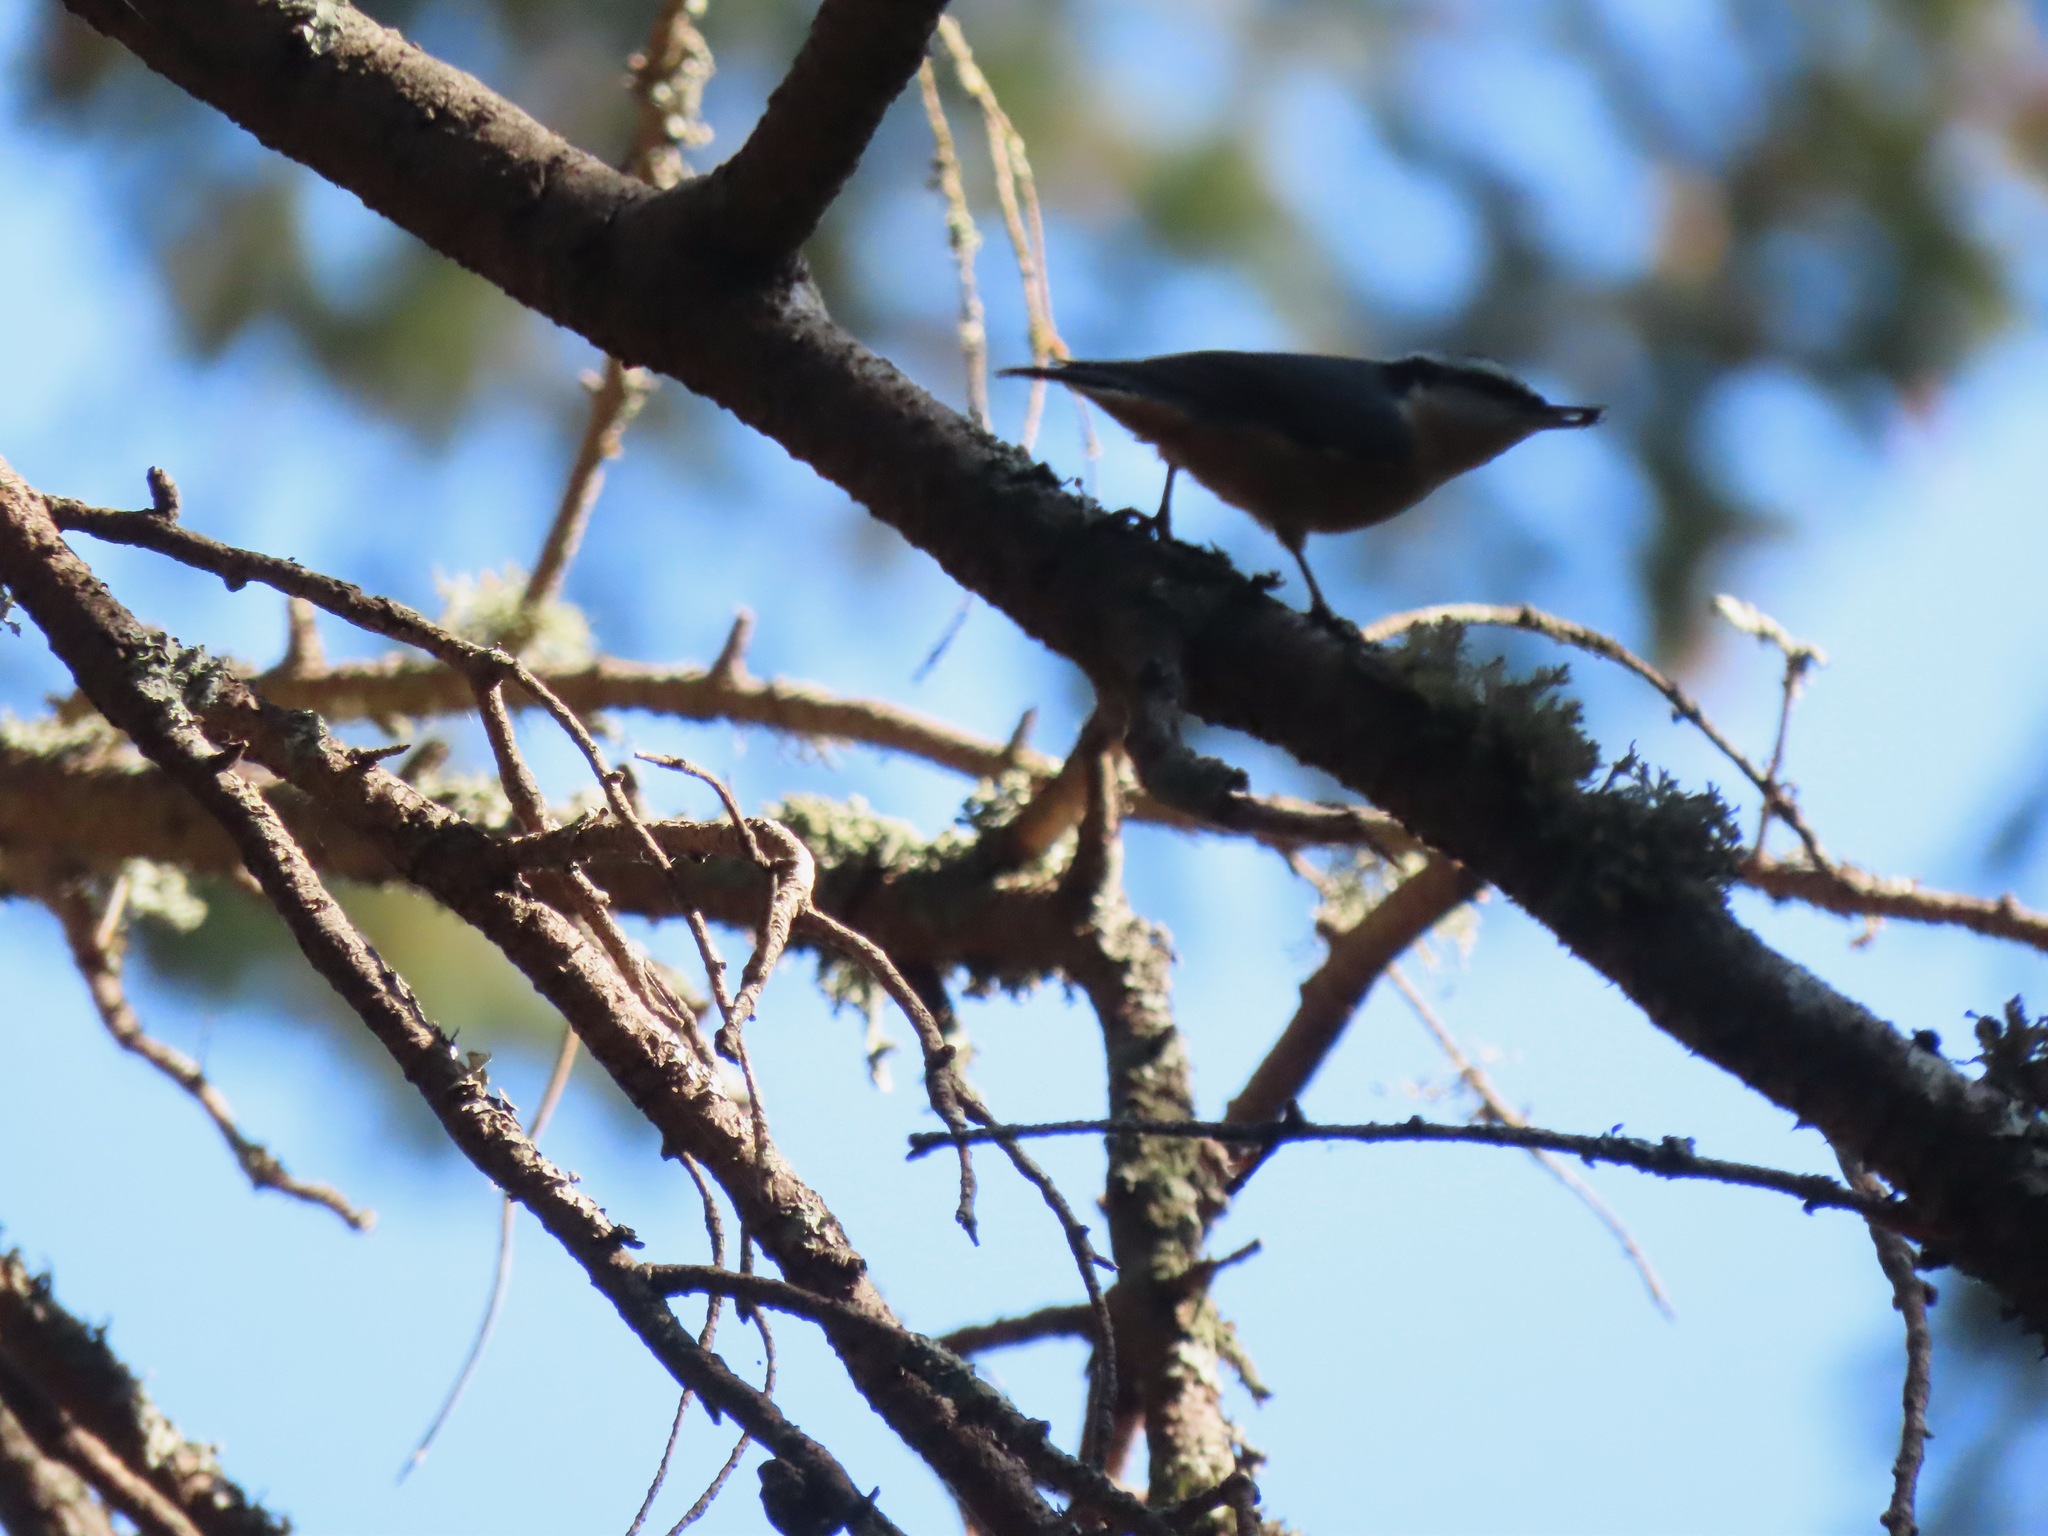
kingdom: Animalia
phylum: Chordata
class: Aves
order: Passeriformes
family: Sittidae
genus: Sitta
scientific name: Sitta canadensis
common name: Red-breasted nuthatch
